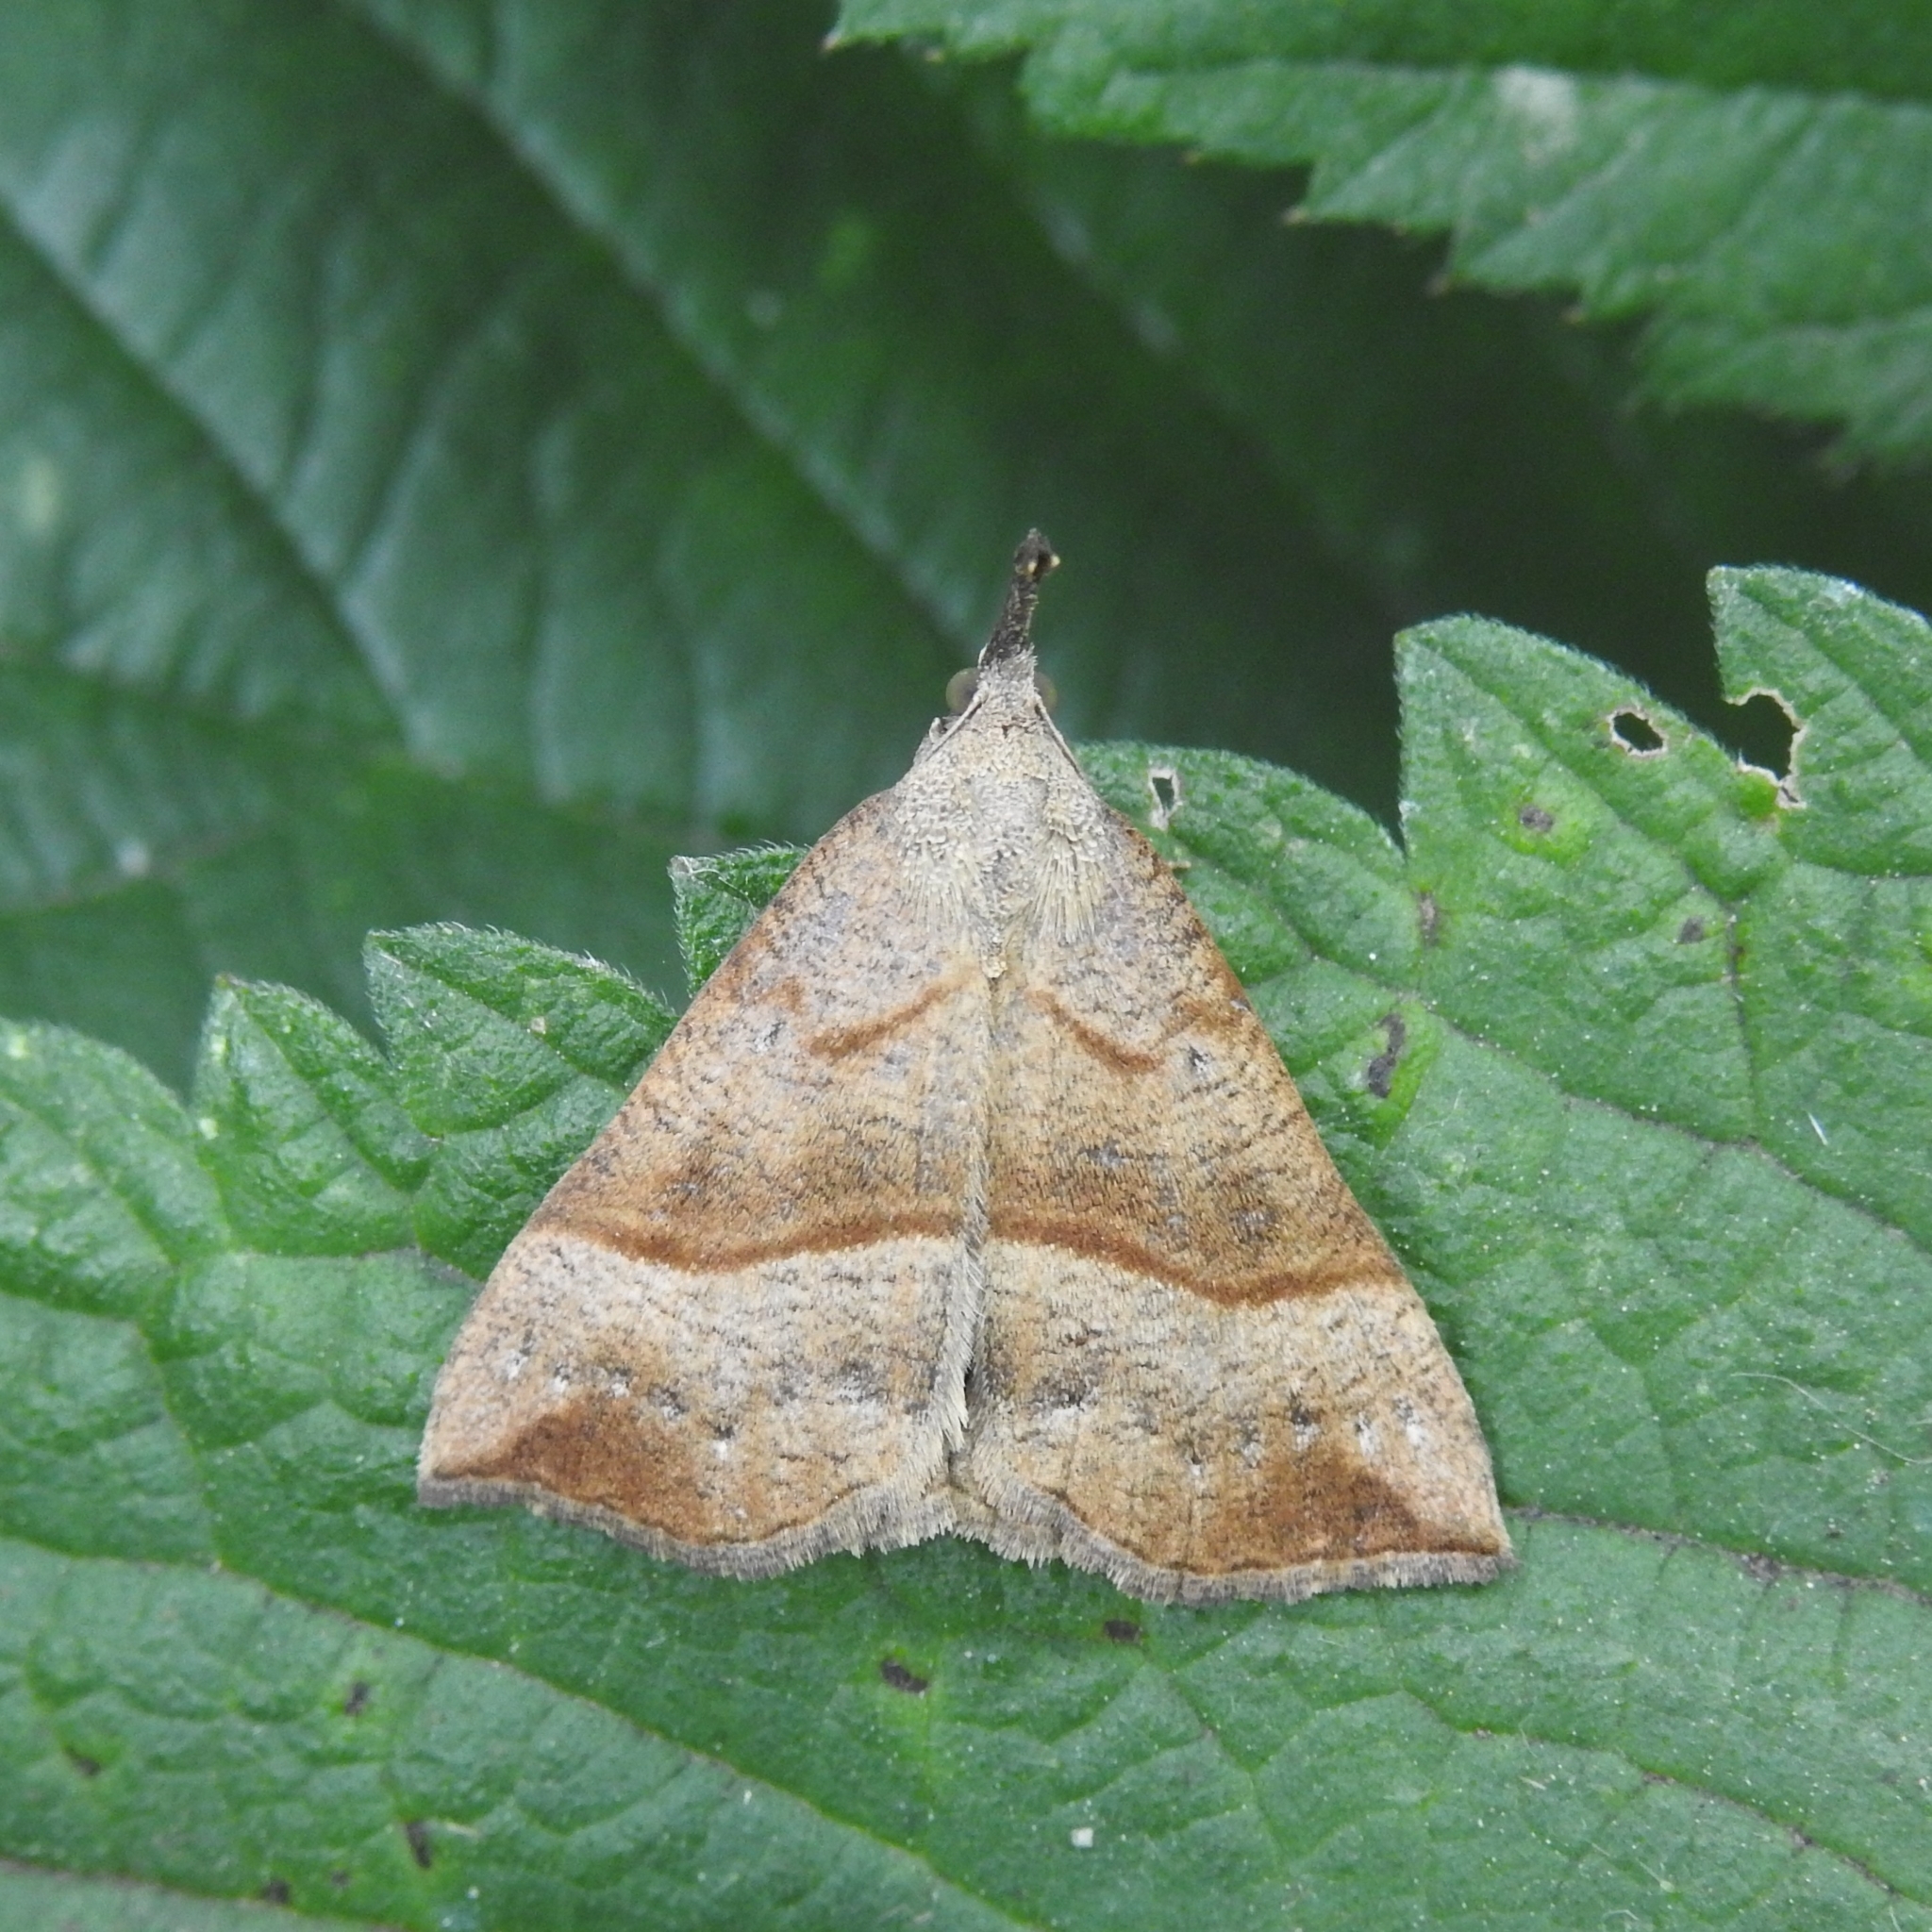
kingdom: Animalia
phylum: Arthropoda
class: Insecta
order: Lepidoptera
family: Erebidae
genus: Hypena
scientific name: Hypena proboscidalis
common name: Snout
